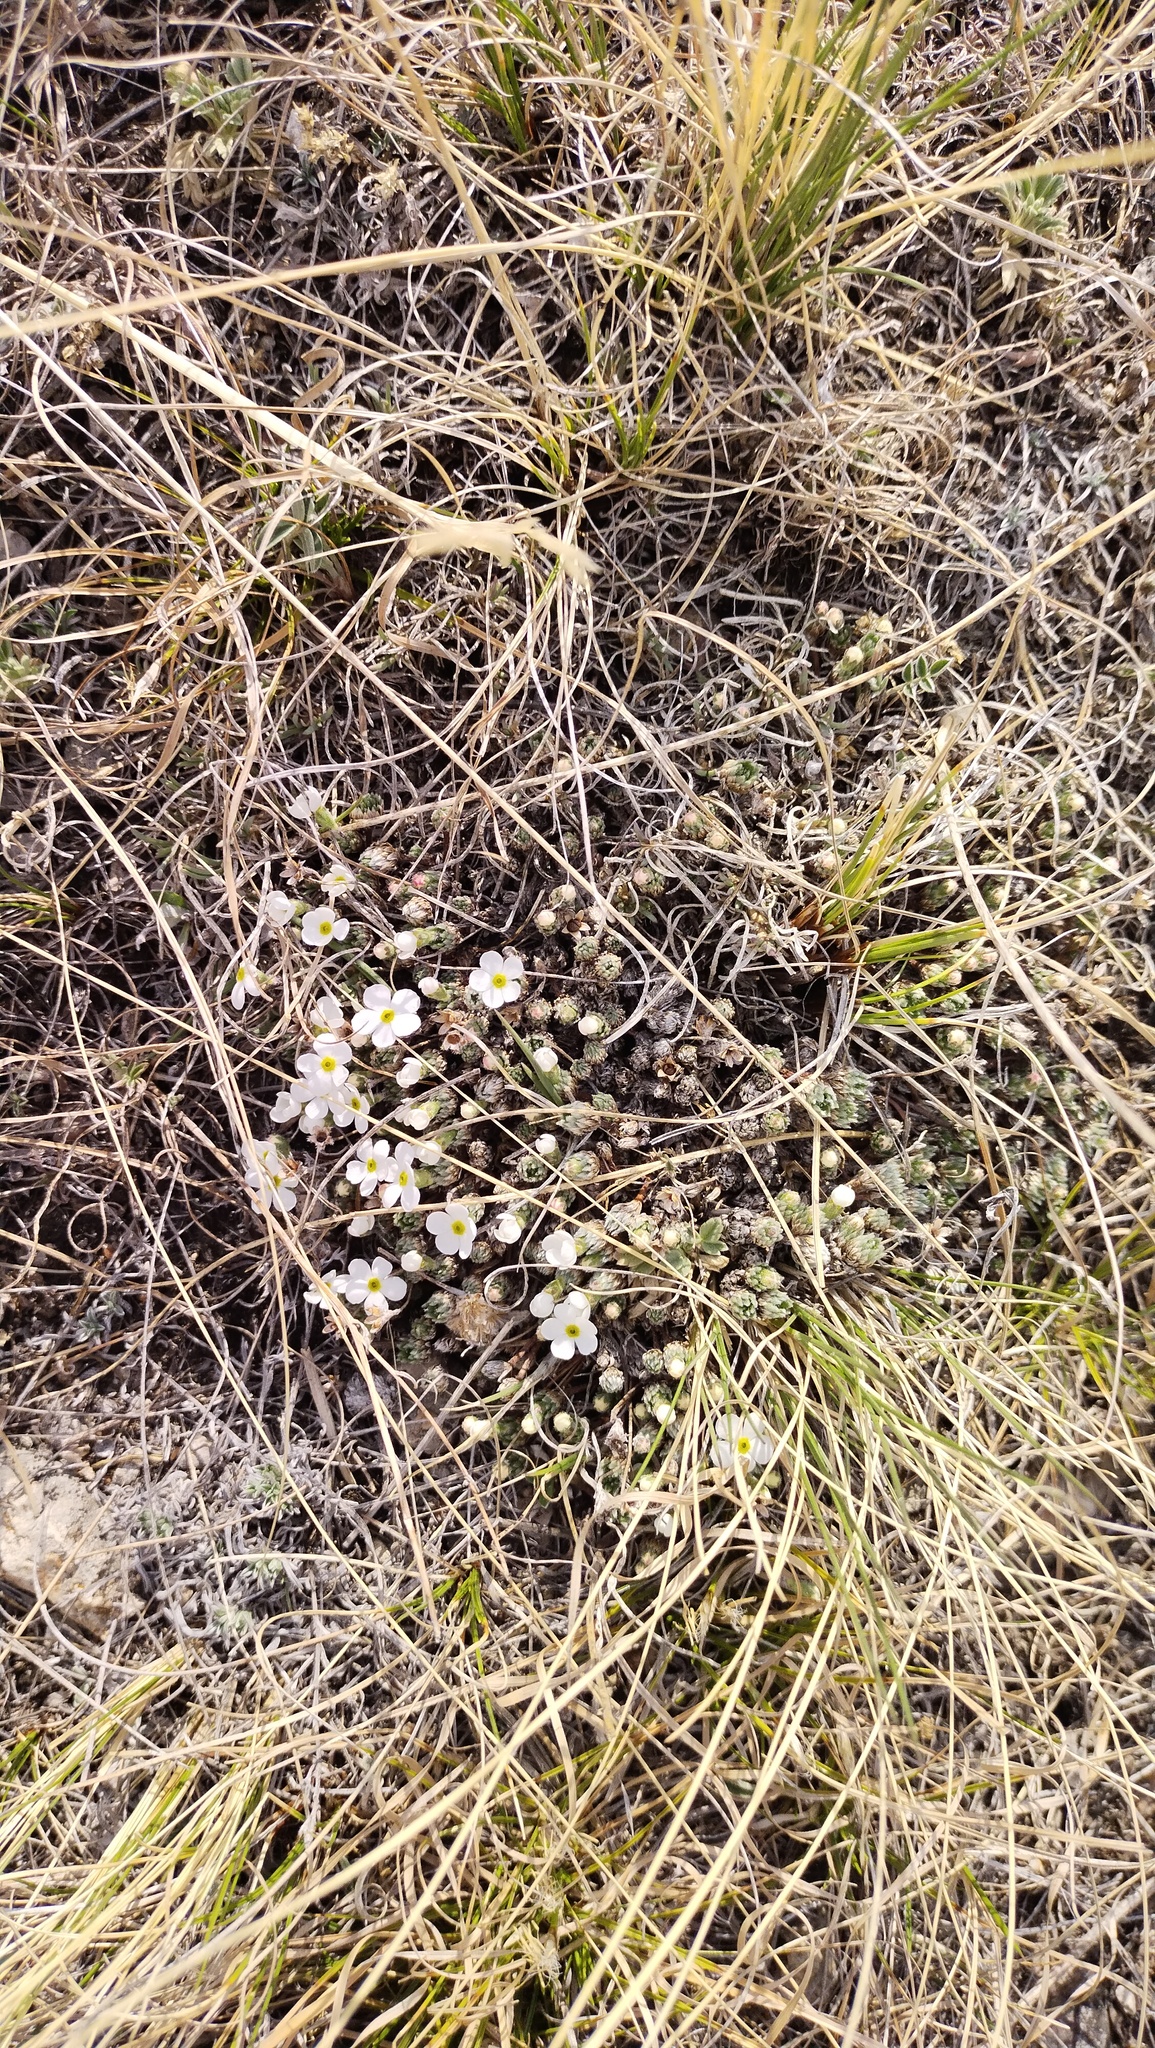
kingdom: Plantae
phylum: Tracheophyta
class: Magnoliopsida
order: Ericales
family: Primulaceae
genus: Androsace
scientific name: Androsace incana
